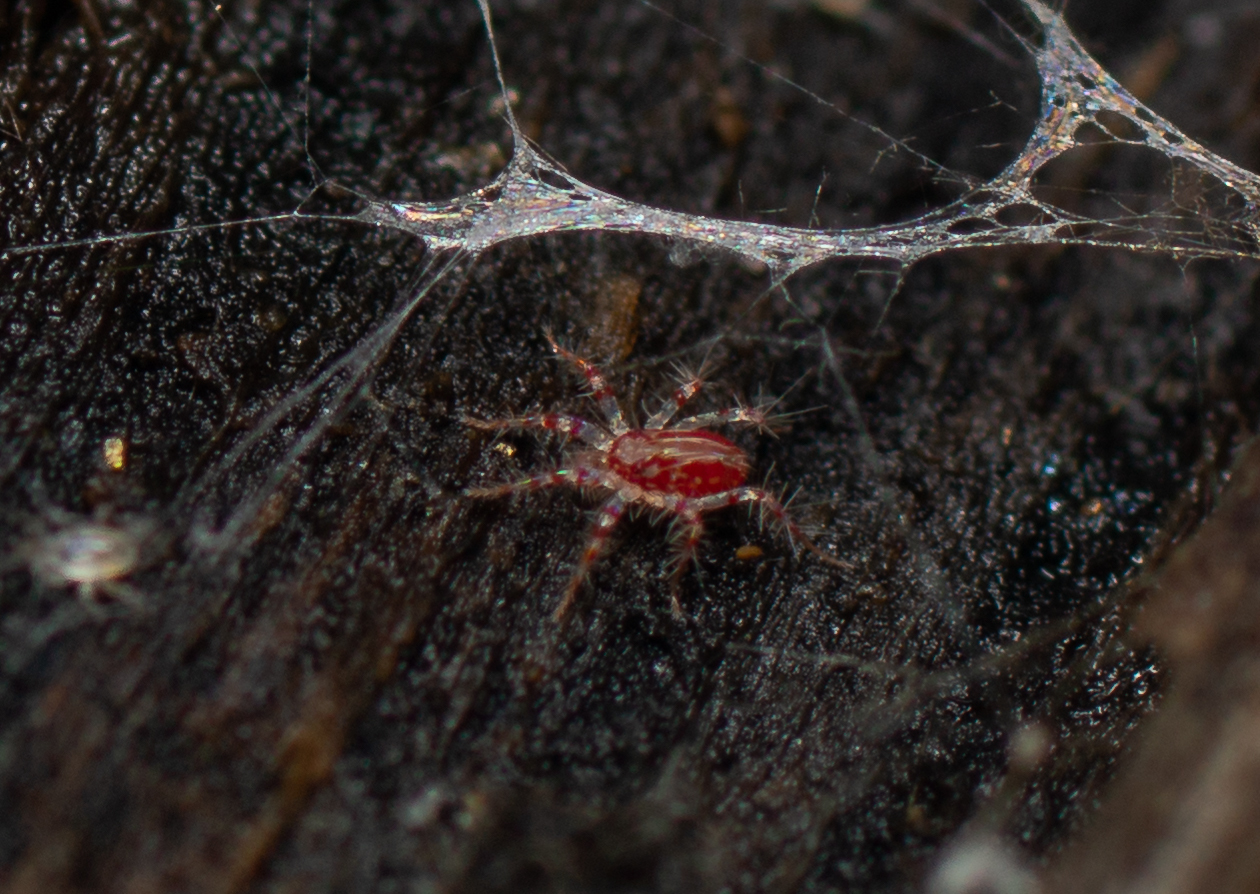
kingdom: Animalia
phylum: Arthropoda
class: Arachnida
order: Trombidiformes
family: Erythracaridae
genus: Erythracarus
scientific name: Erythracarus pyrrholeucum
